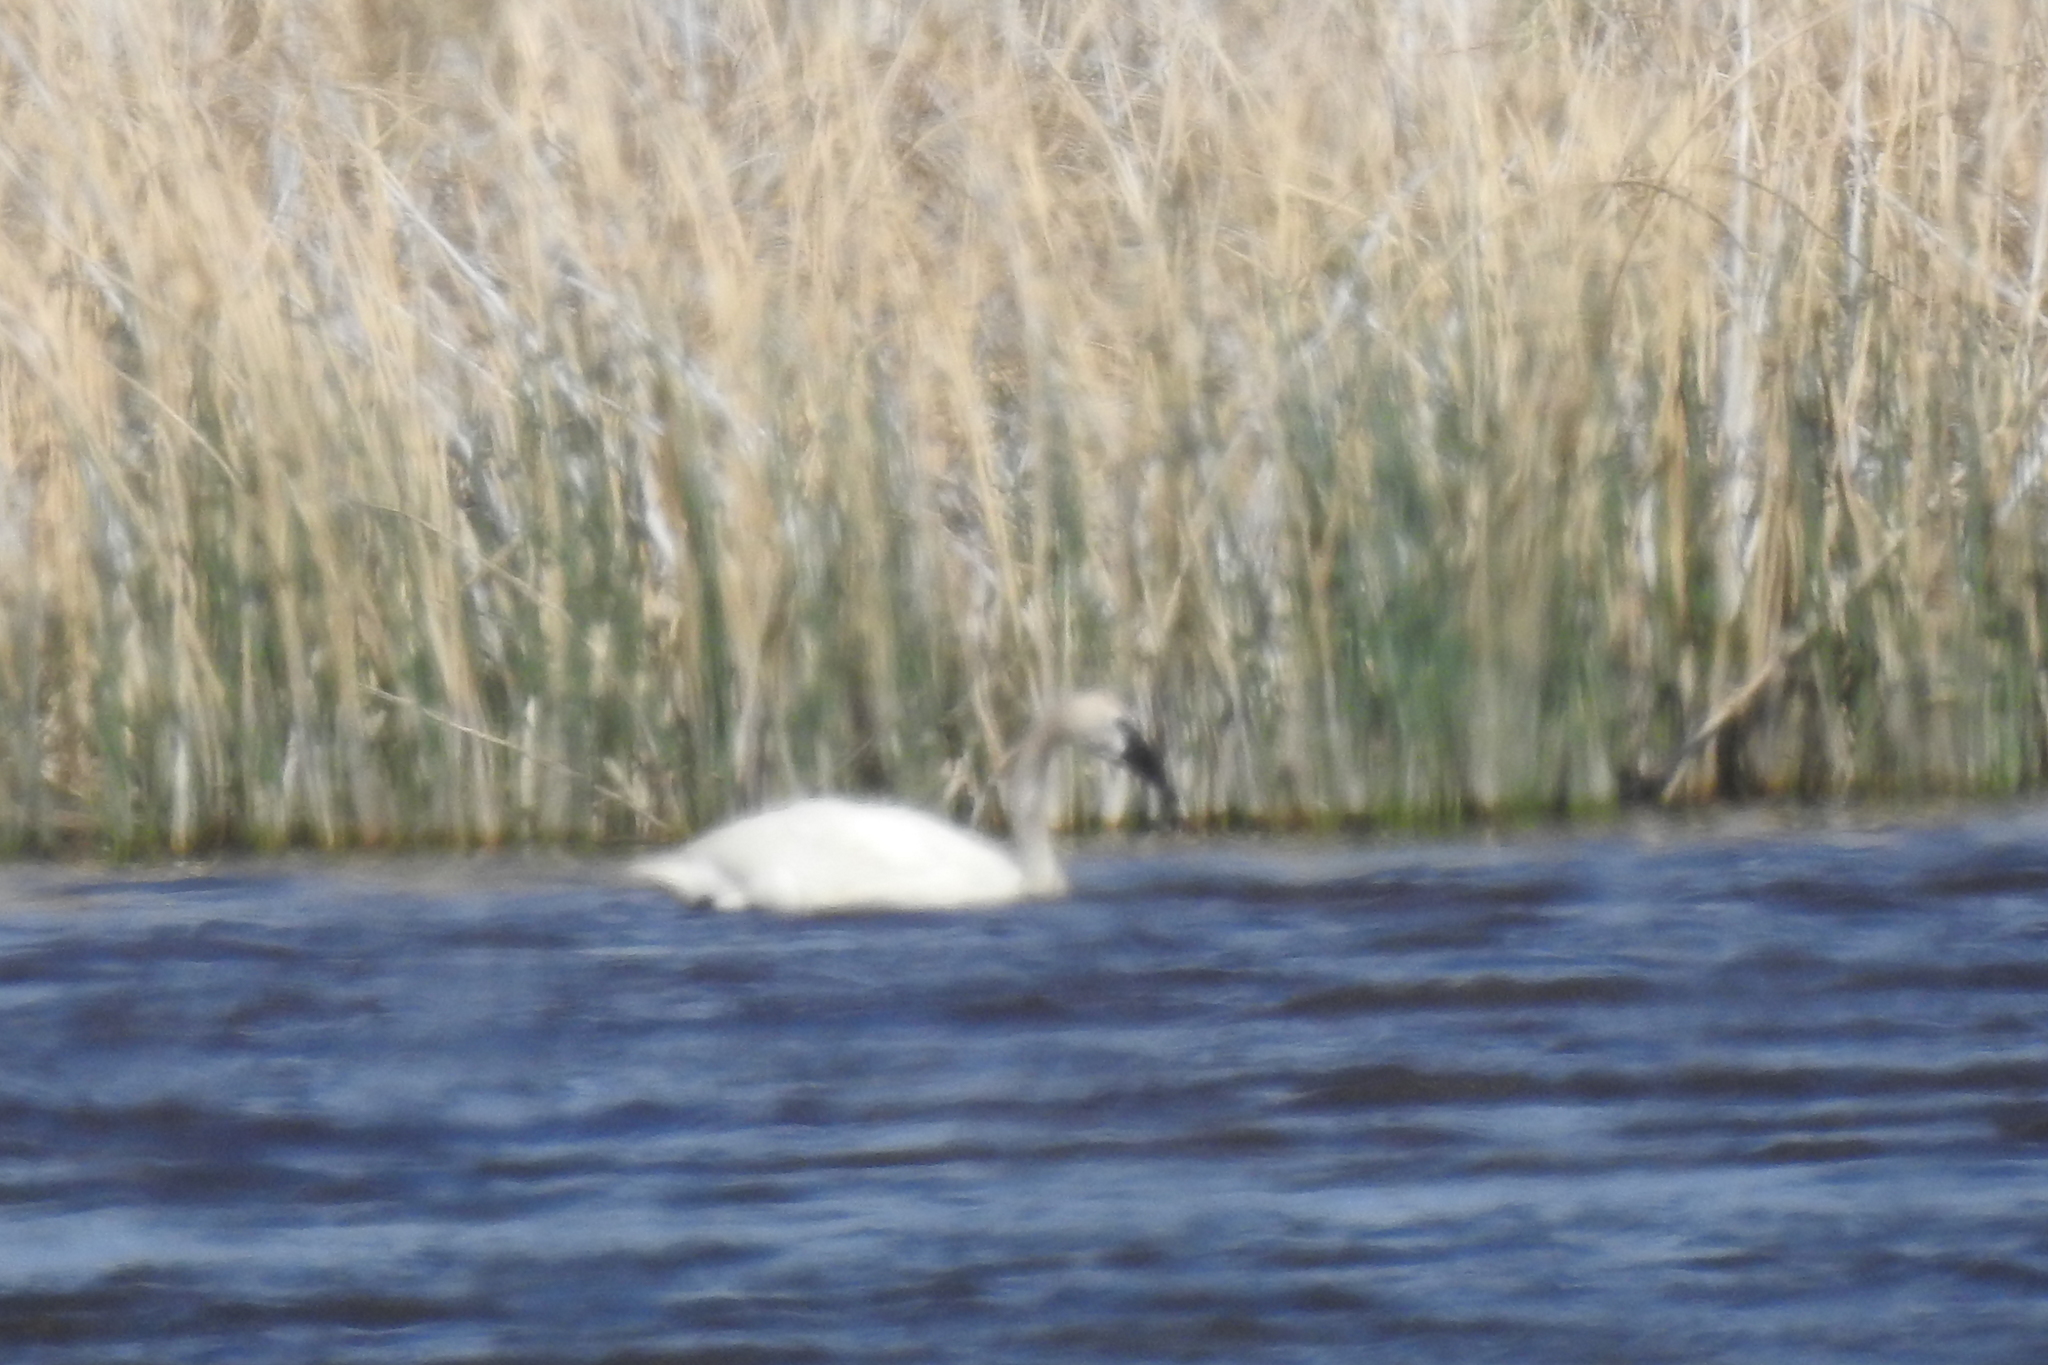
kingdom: Animalia
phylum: Chordata
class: Aves
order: Anseriformes
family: Anatidae
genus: Cygnus
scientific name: Cygnus buccinator
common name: Trumpeter swan
